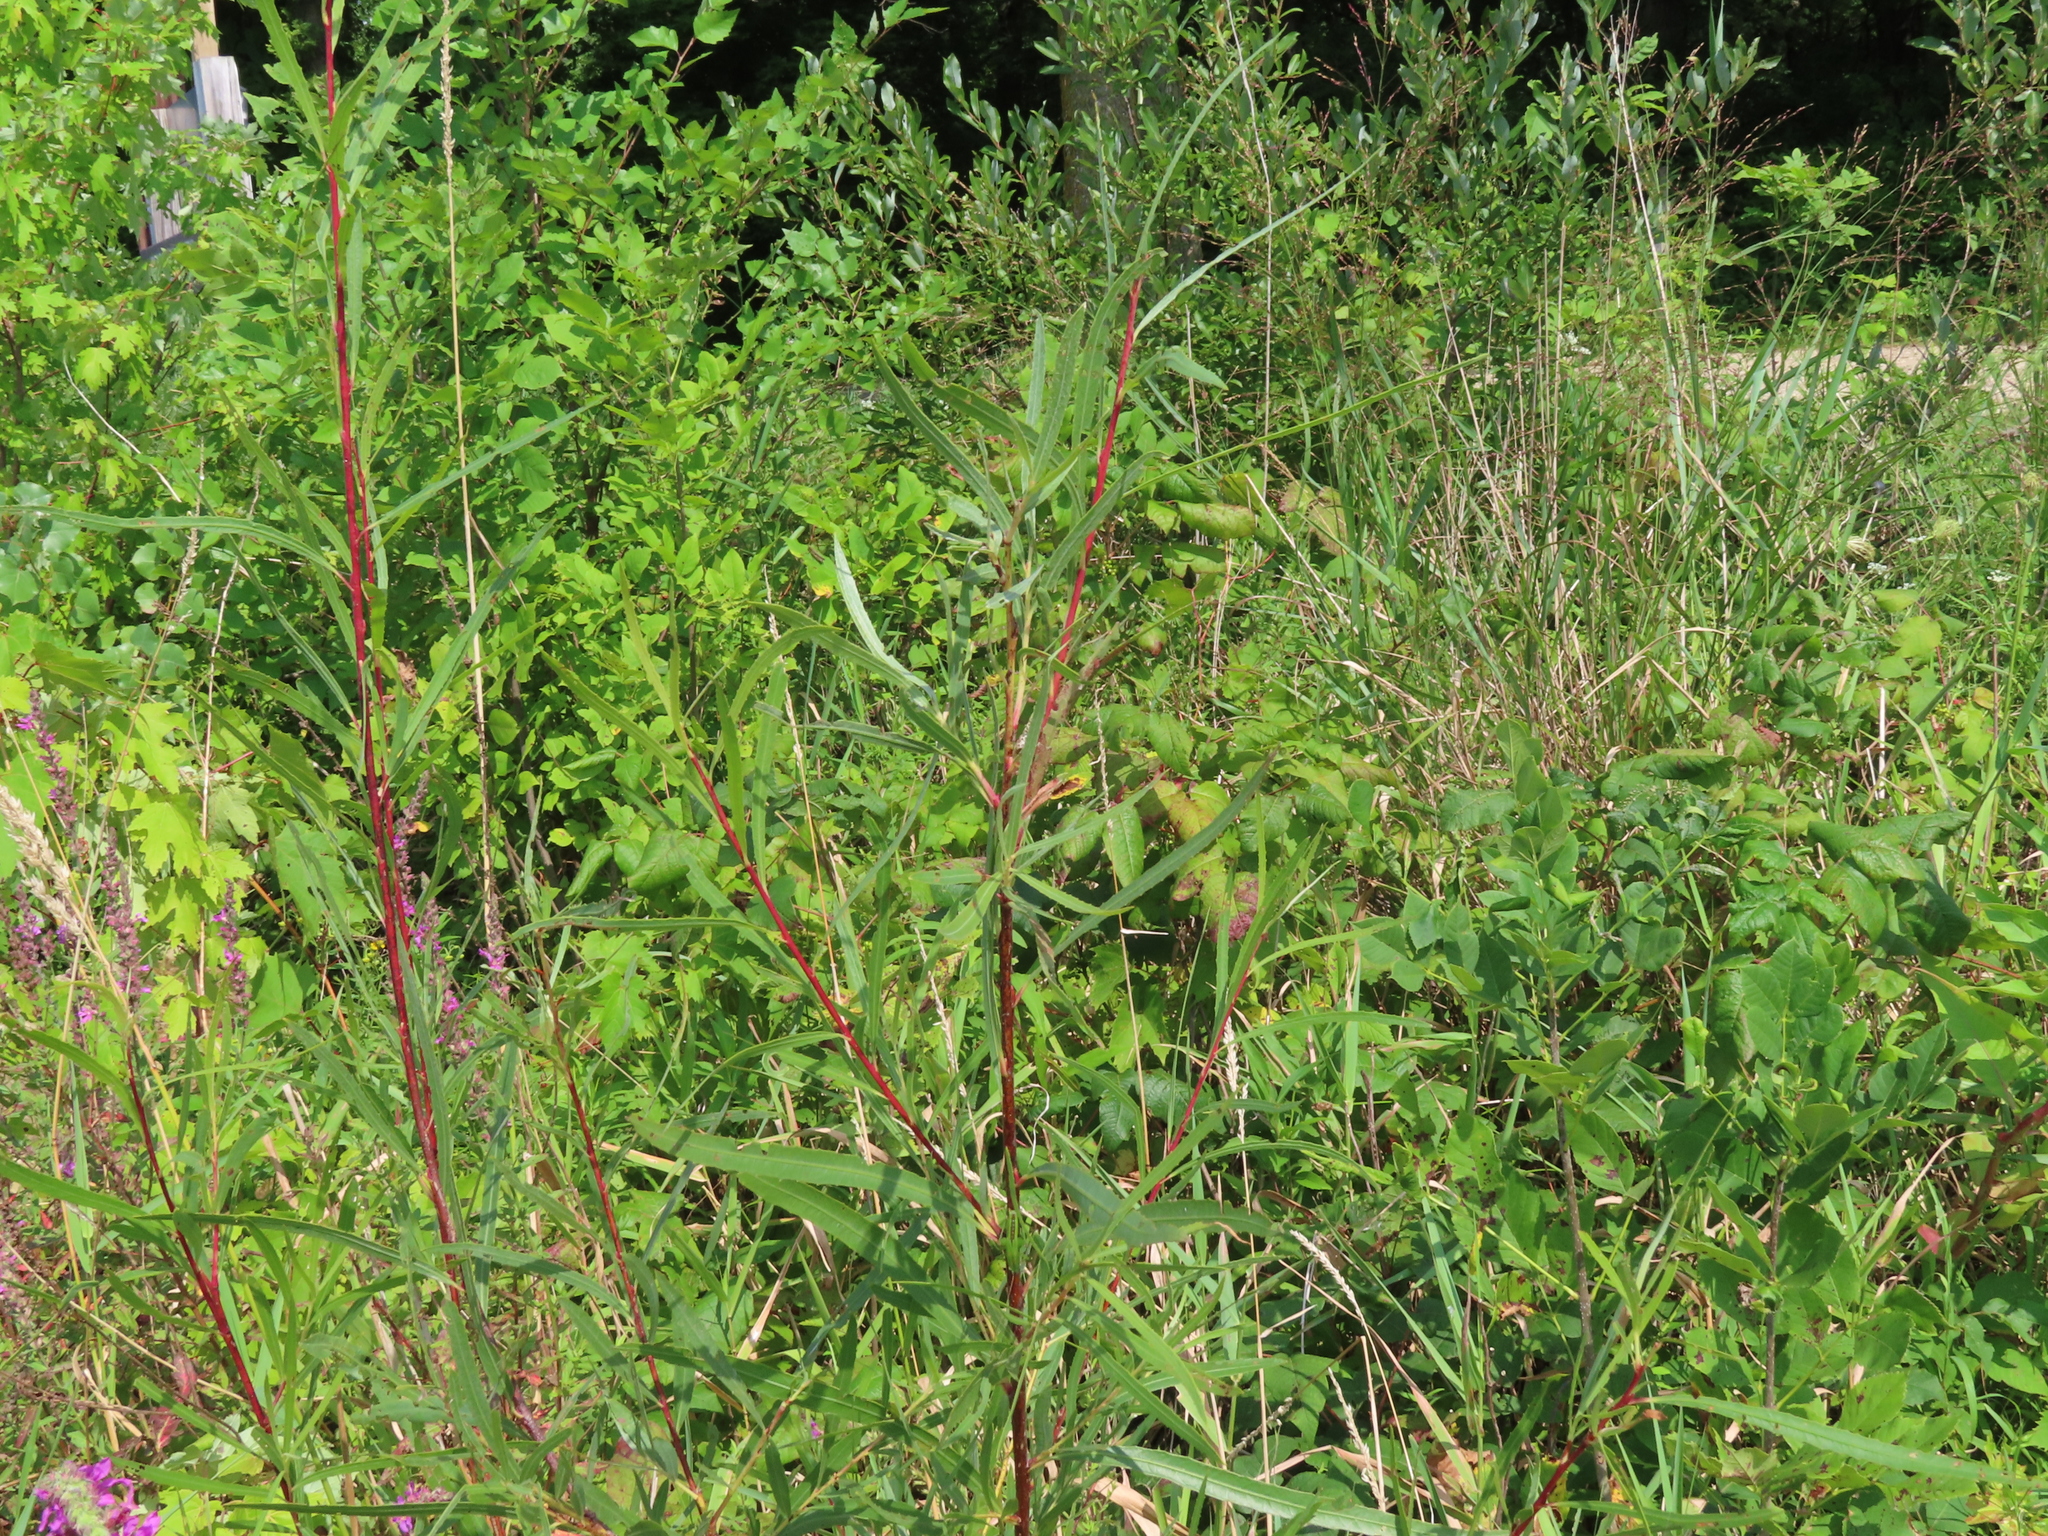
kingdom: Plantae
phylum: Tracheophyta
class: Magnoliopsida
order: Malpighiales
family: Salicaceae
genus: Salix
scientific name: Salix interior
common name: Sandbar willow
